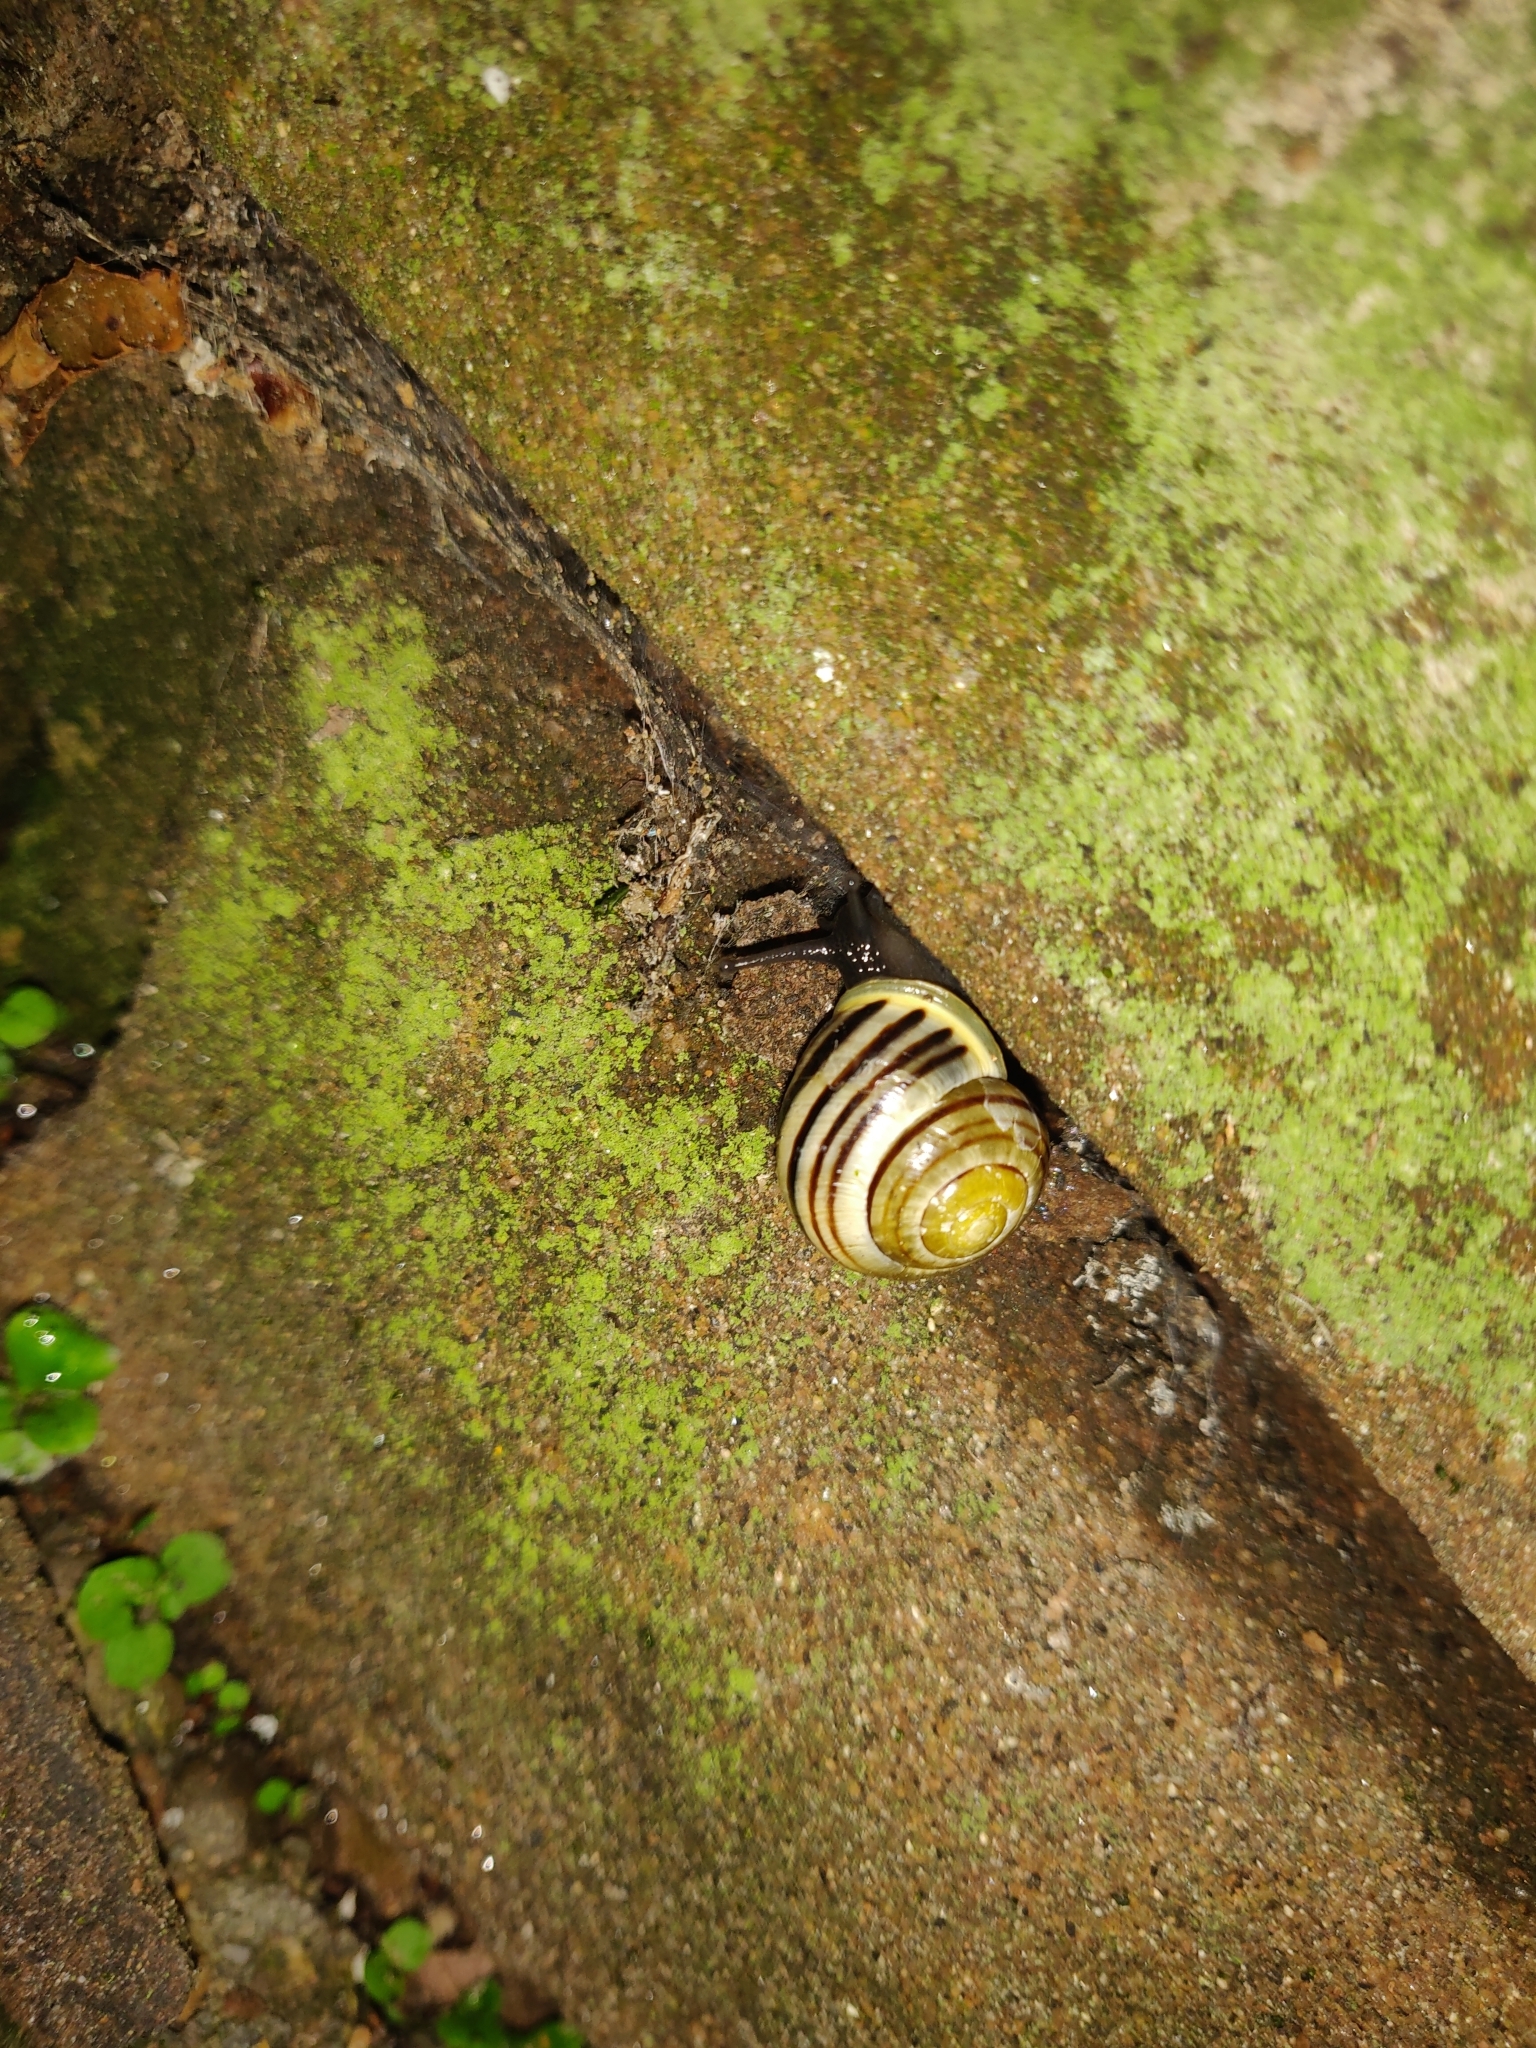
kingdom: Animalia
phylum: Mollusca
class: Gastropoda
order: Stylommatophora
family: Helicidae
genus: Cepaea
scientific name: Cepaea hortensis
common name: White-lip gardensnail
